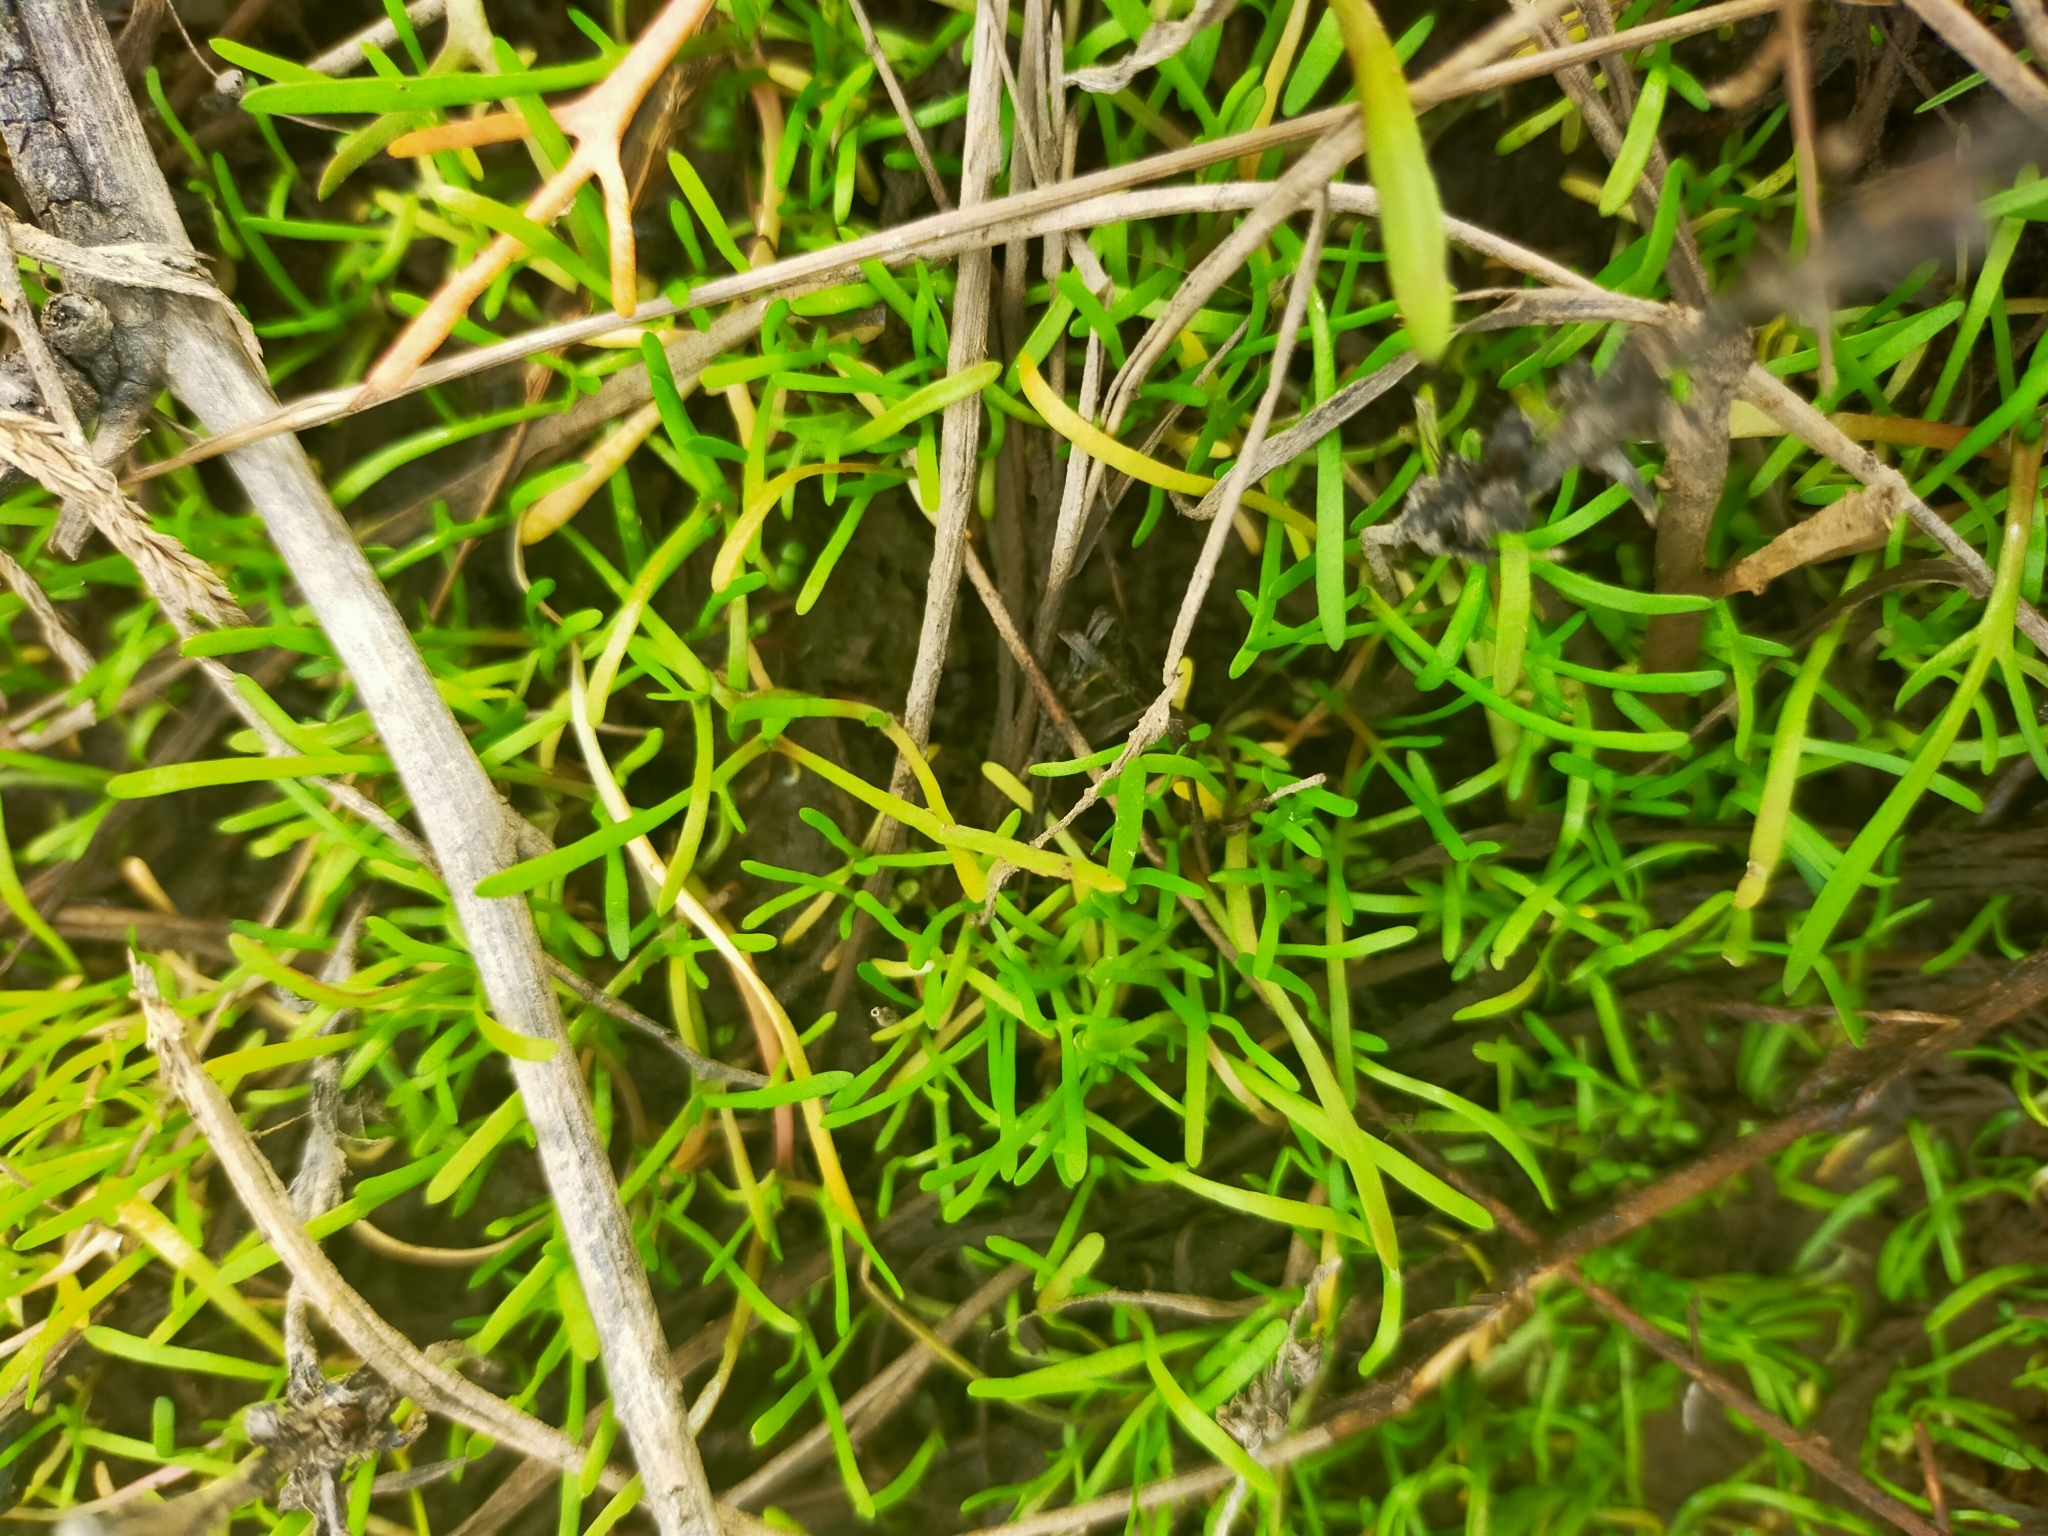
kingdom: Plantae
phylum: Tracheophyta
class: Magnoliopsida
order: Asterales
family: Asteraceae
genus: Cotula
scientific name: Cotula coronopifolia
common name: Buttonweed
